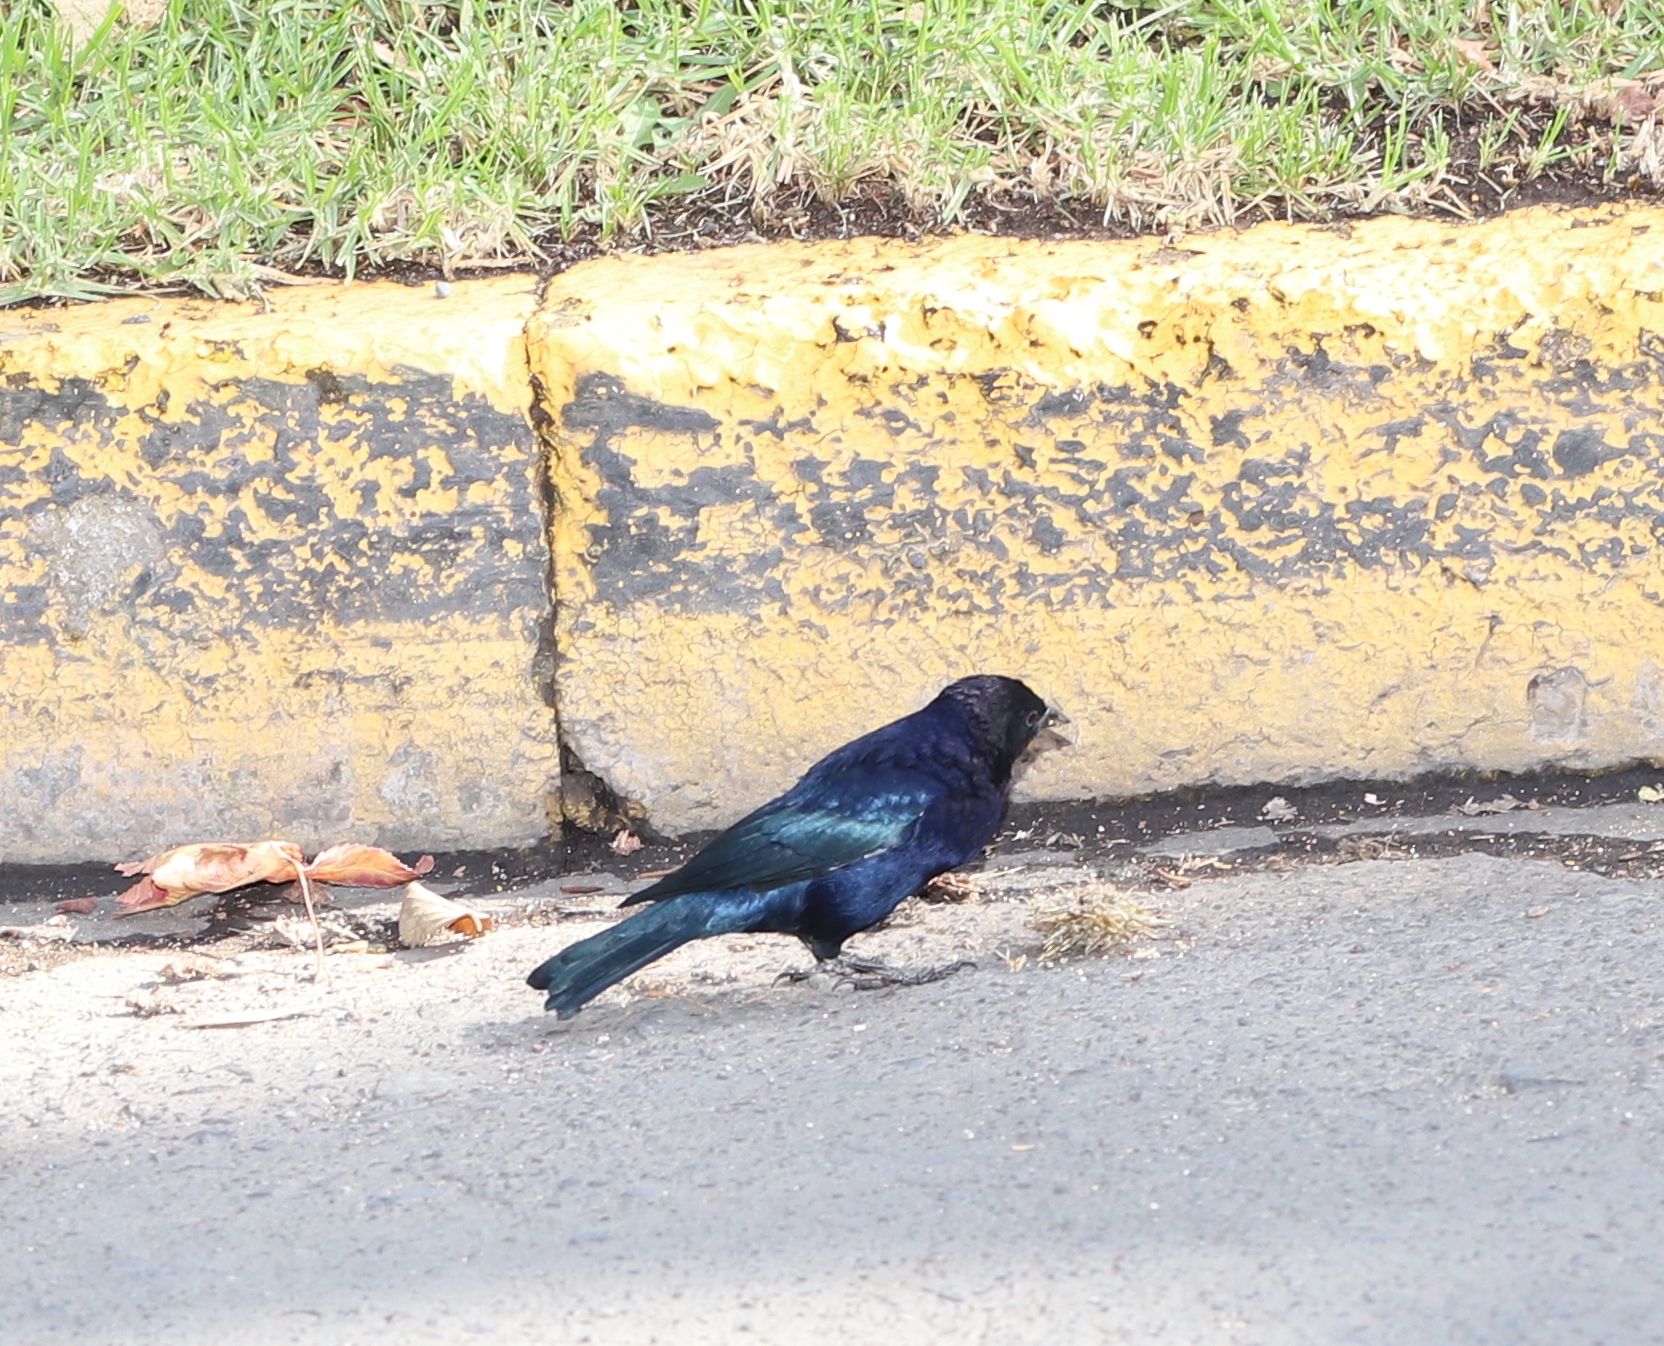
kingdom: Animalia
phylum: Chordata
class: Aves
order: Passeriformes
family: Icteridae
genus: Molothrus
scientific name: Molothrus bonariensis
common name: Shiny cowbird
